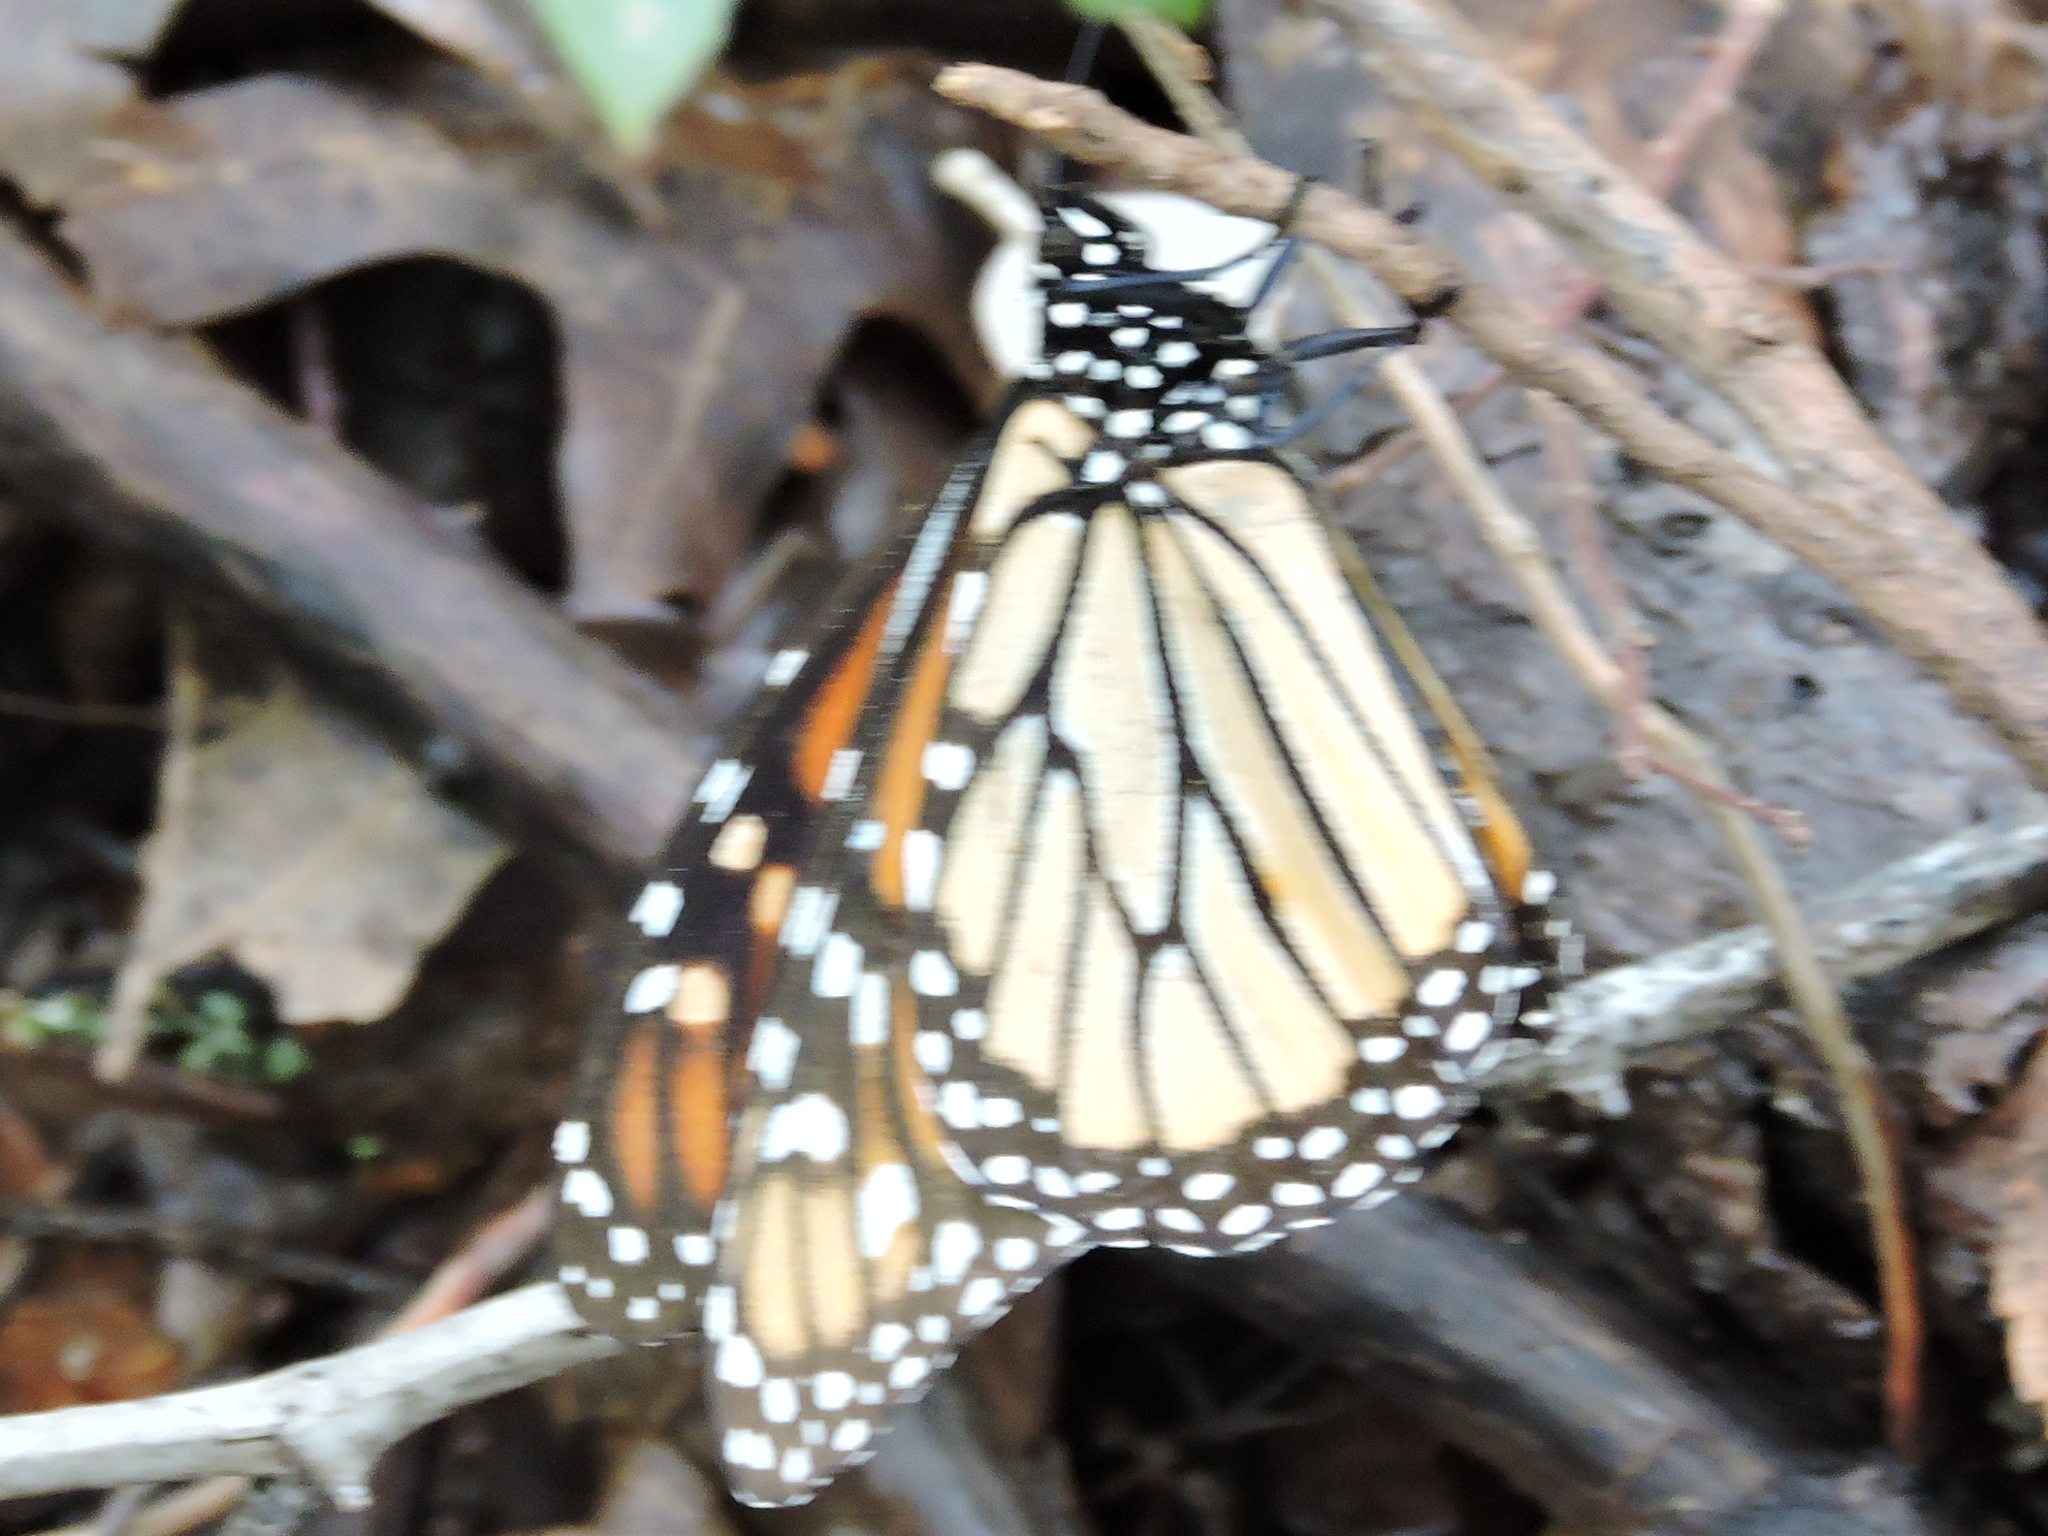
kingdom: Animalia
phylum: Arthropoda
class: Insecta
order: Lepidoptera
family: Nymphalidae
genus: Danaus
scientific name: Danaus plexippus
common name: Monarch
